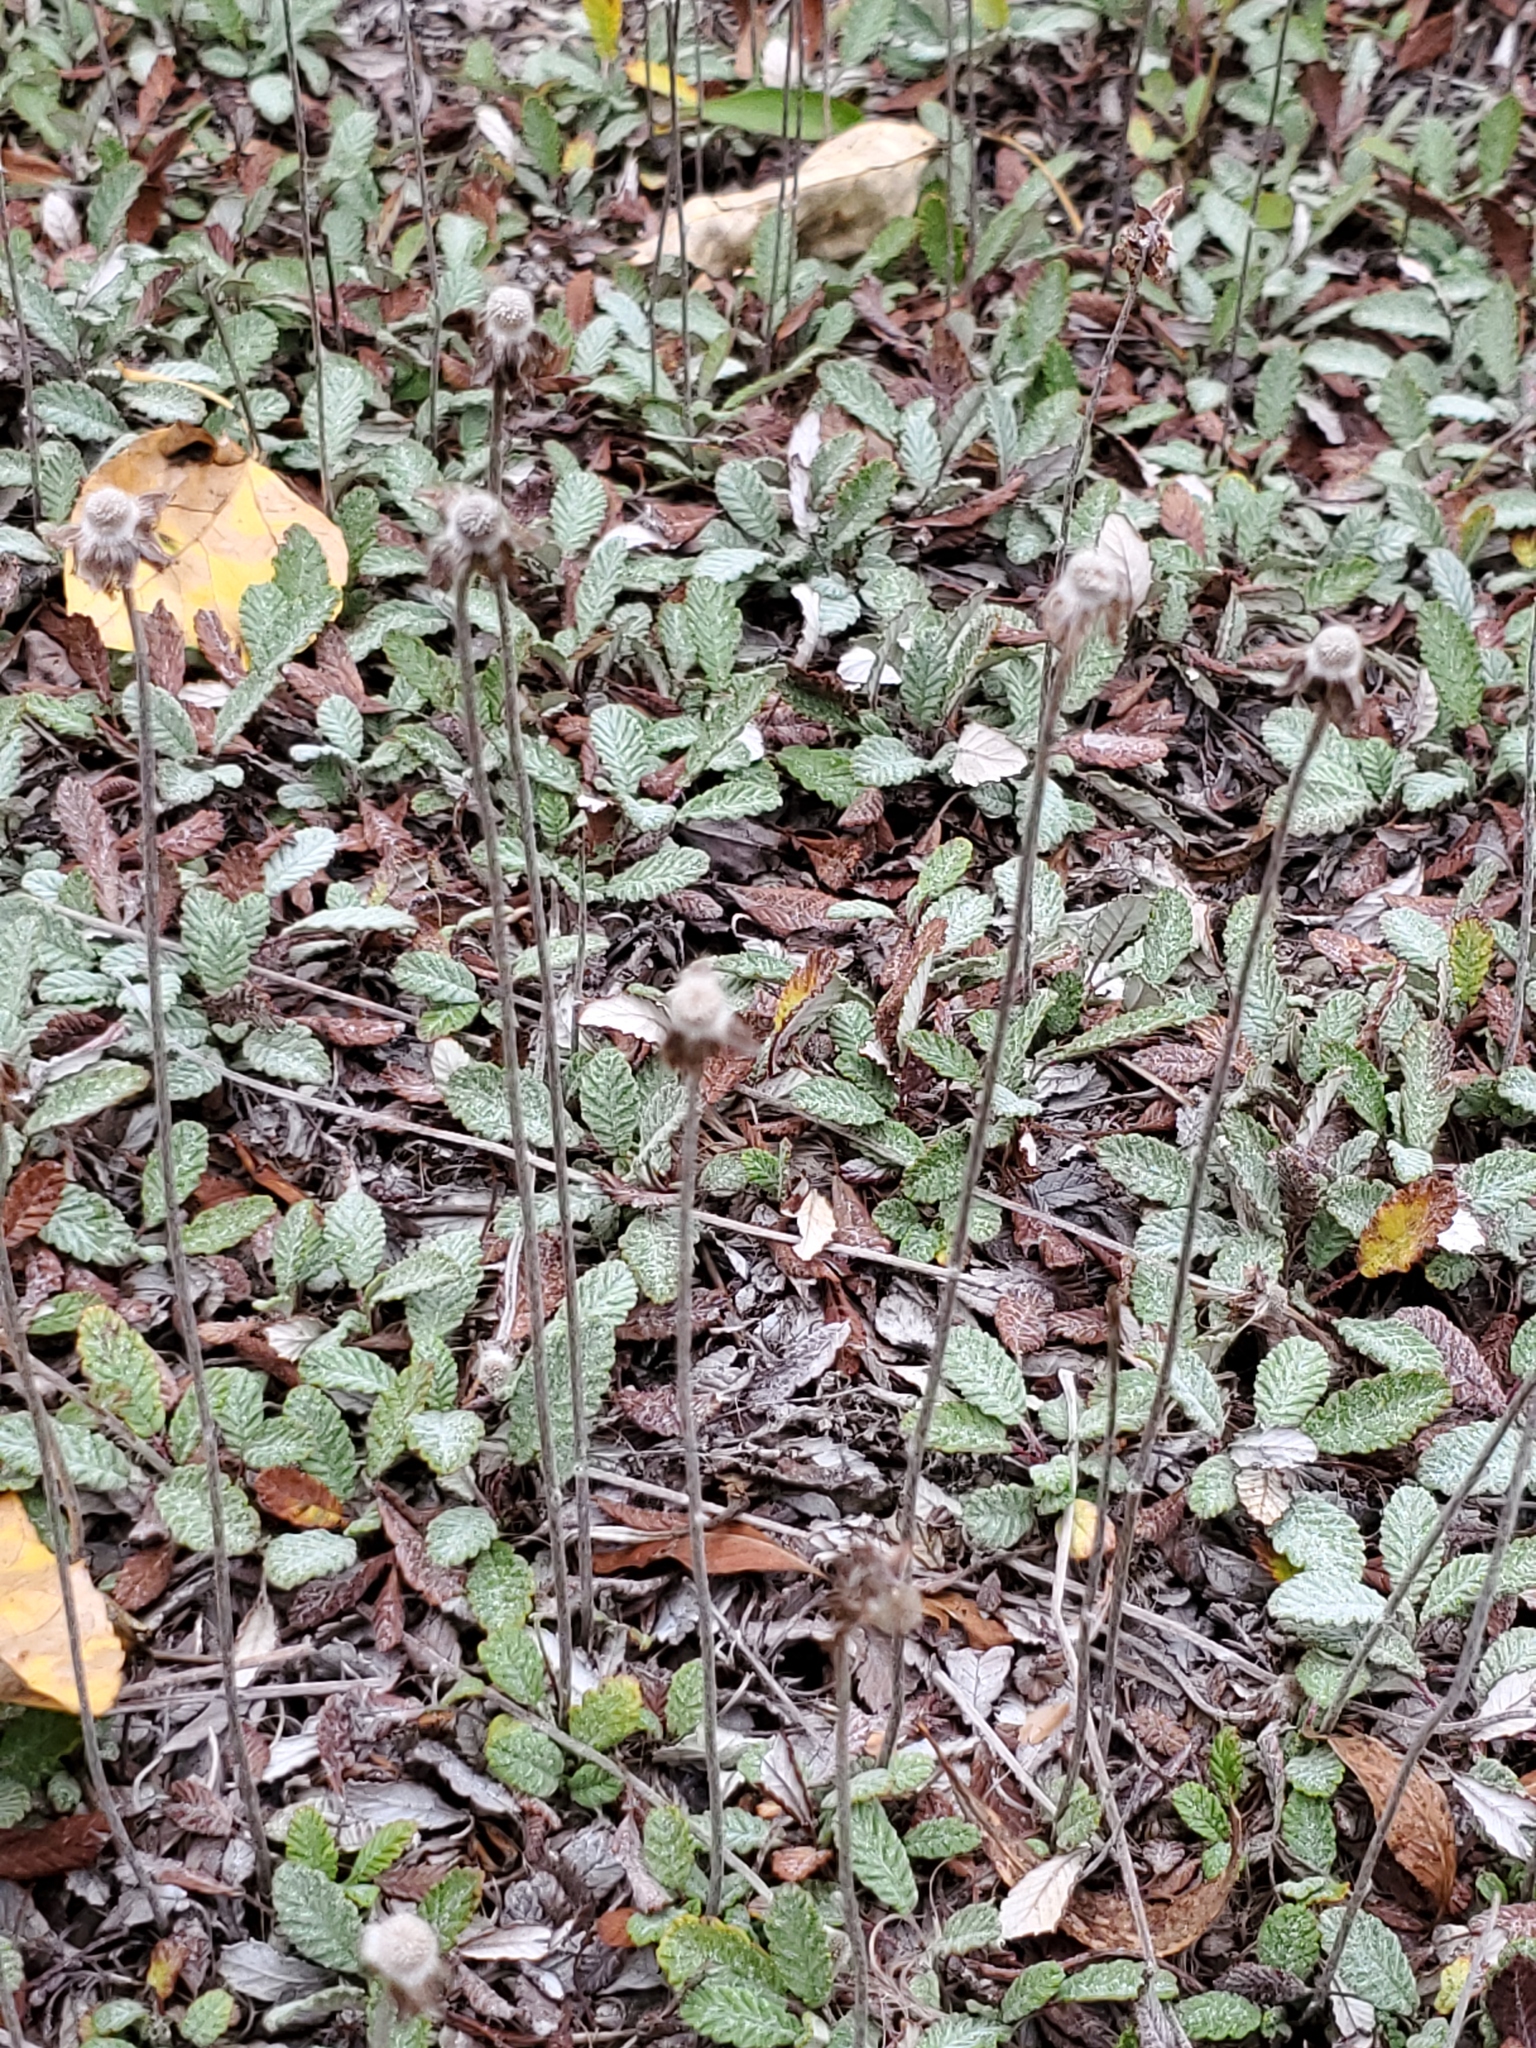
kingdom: Plantae
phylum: Tracheophyta
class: Magnoliopsida
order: Rosales
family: Rosaceae
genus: Dryas
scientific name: Dryas drummondii
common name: Drummond's dryad
